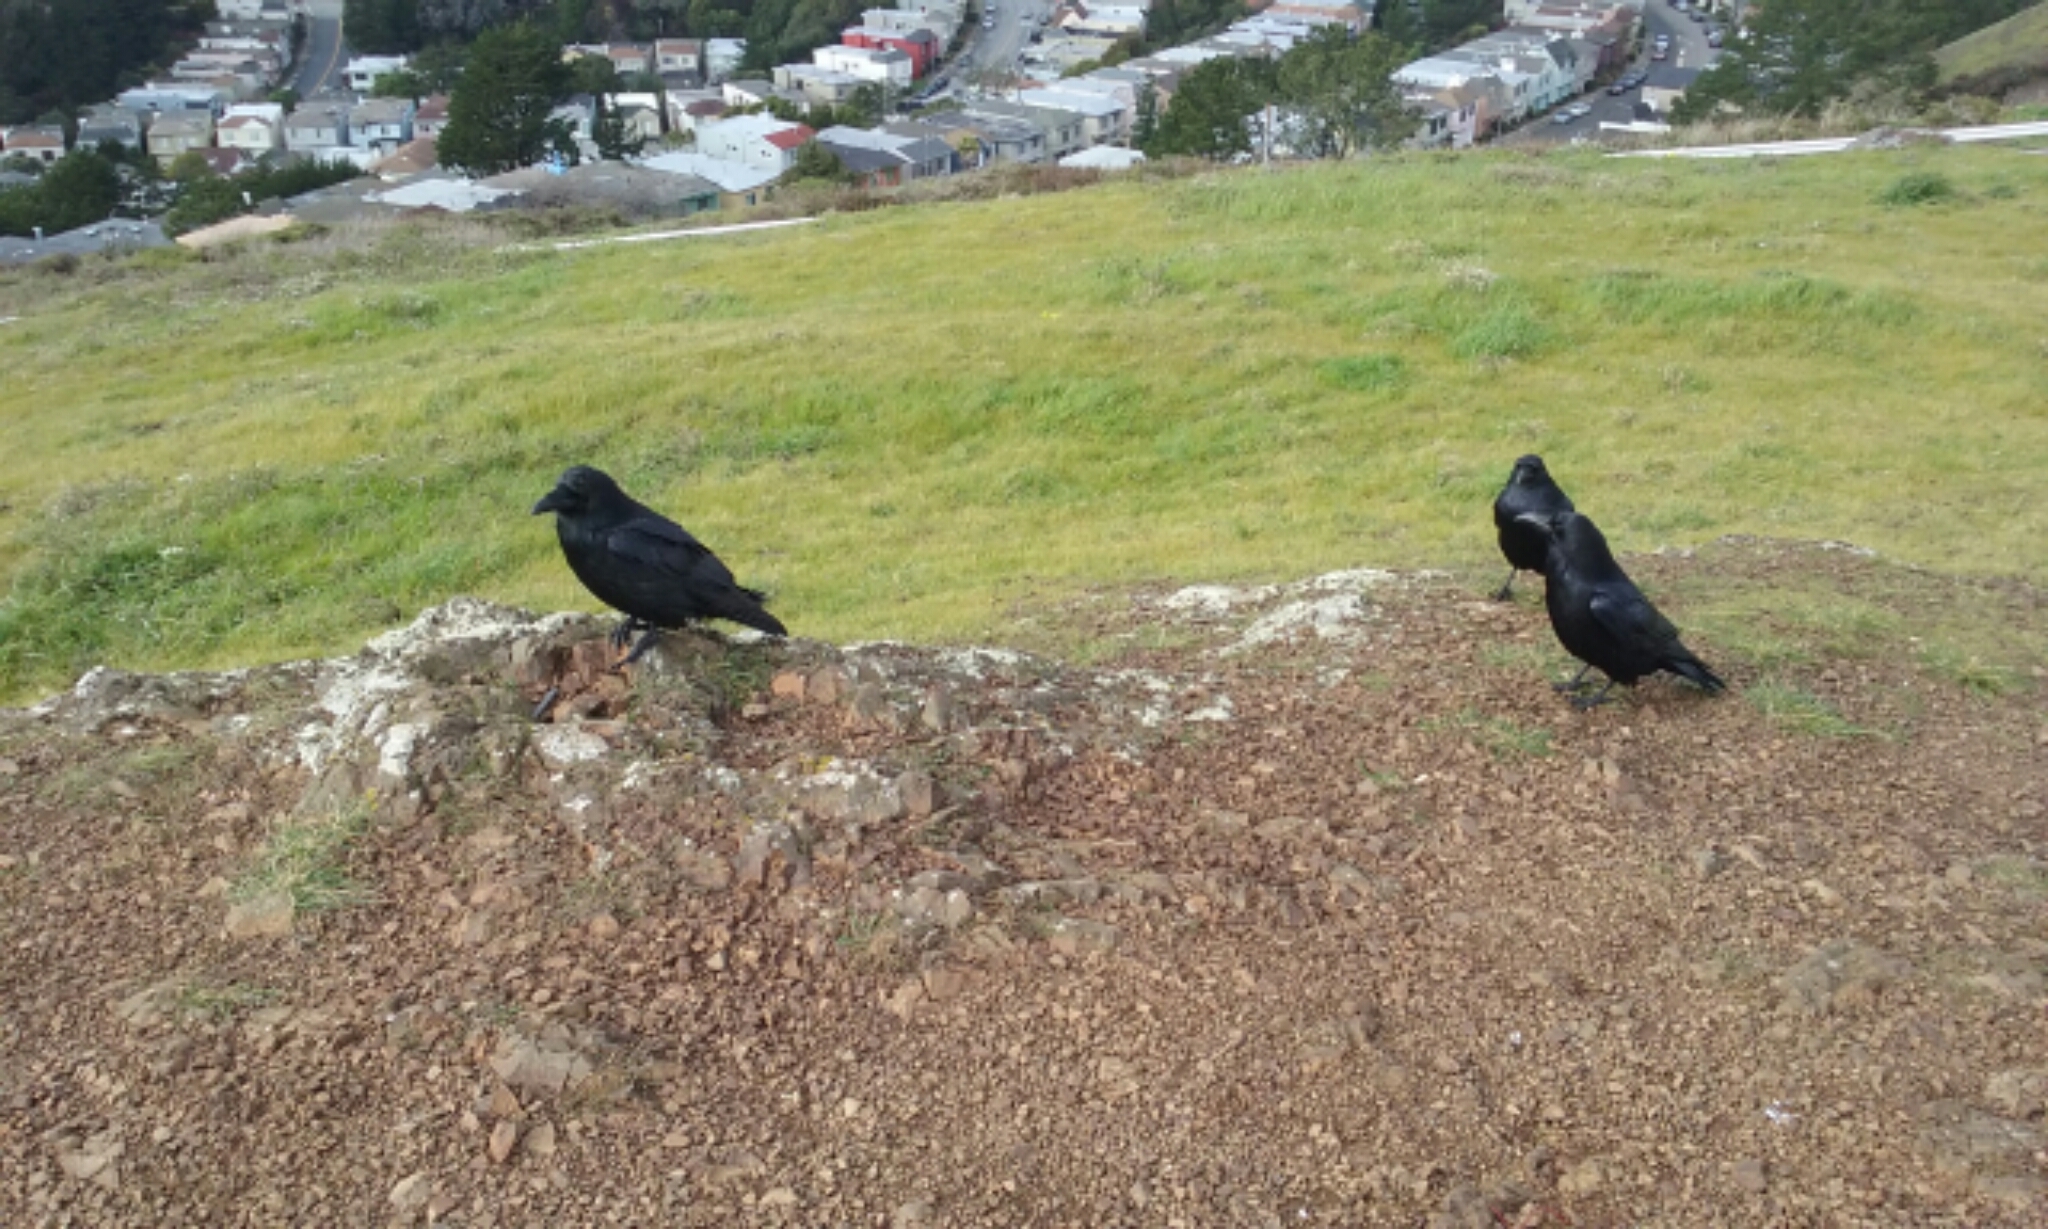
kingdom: Animalia
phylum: Chordata
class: Aves
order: Passeriformes
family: Corvidae
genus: Corvus
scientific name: Corvus corax
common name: Common raven
